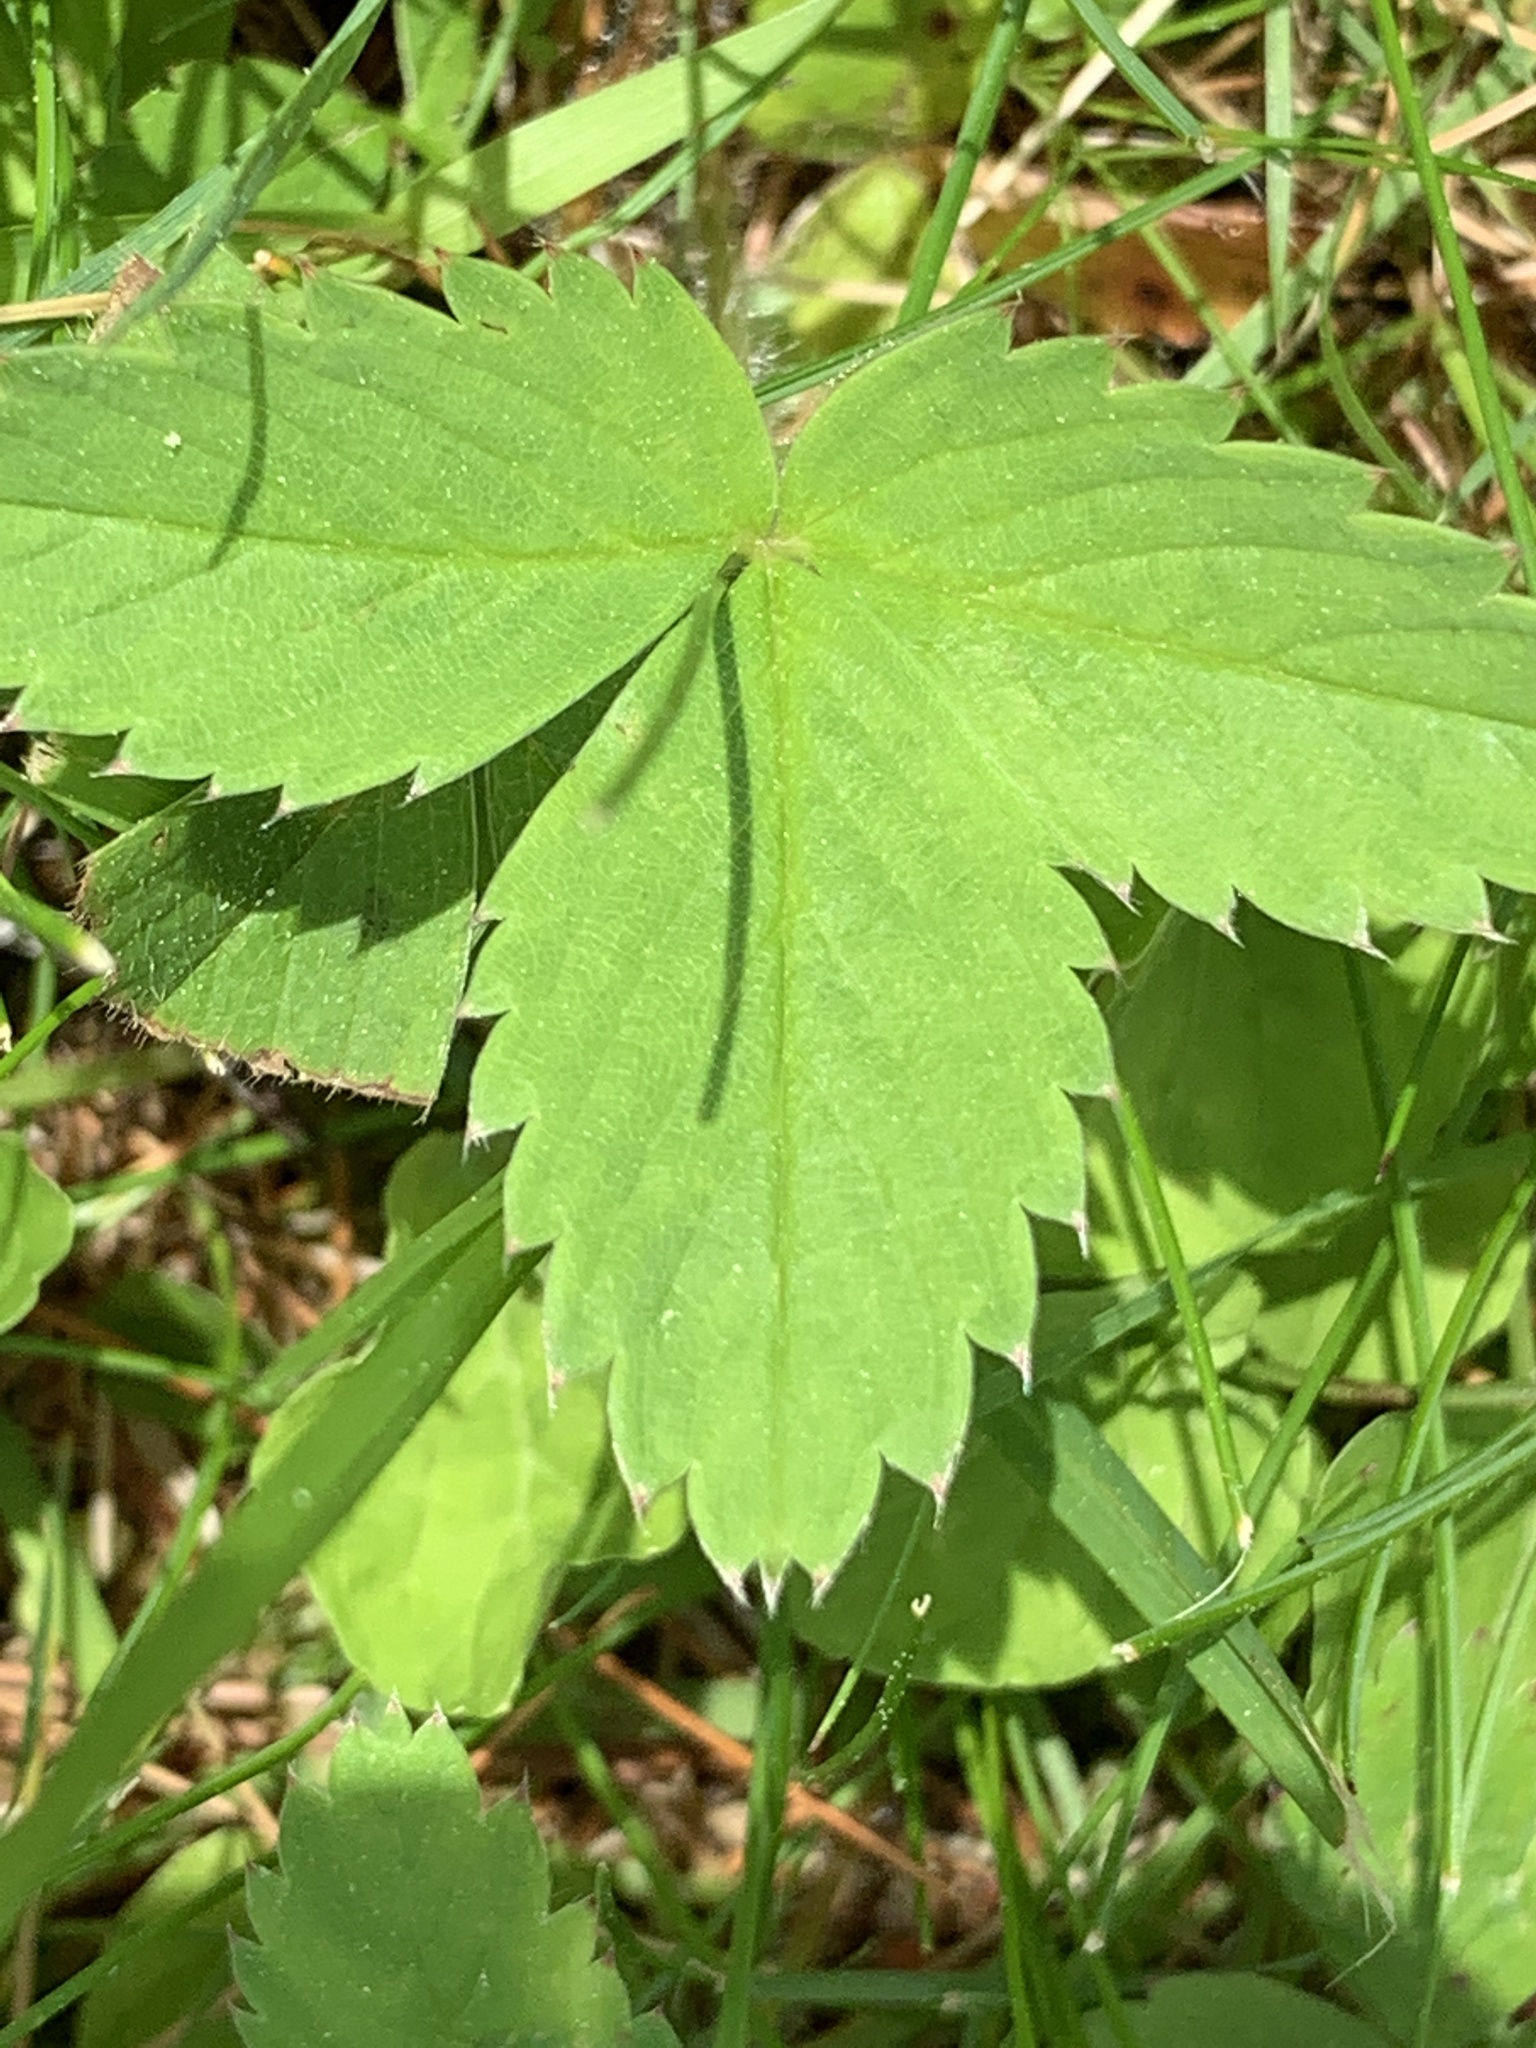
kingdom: Plantae
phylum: Tracheophyta
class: Magnoliopsida
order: Rosales
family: Rosaceae
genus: Fragaria
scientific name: Fragaria virginiana
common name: Thickleaved wild strawberry
